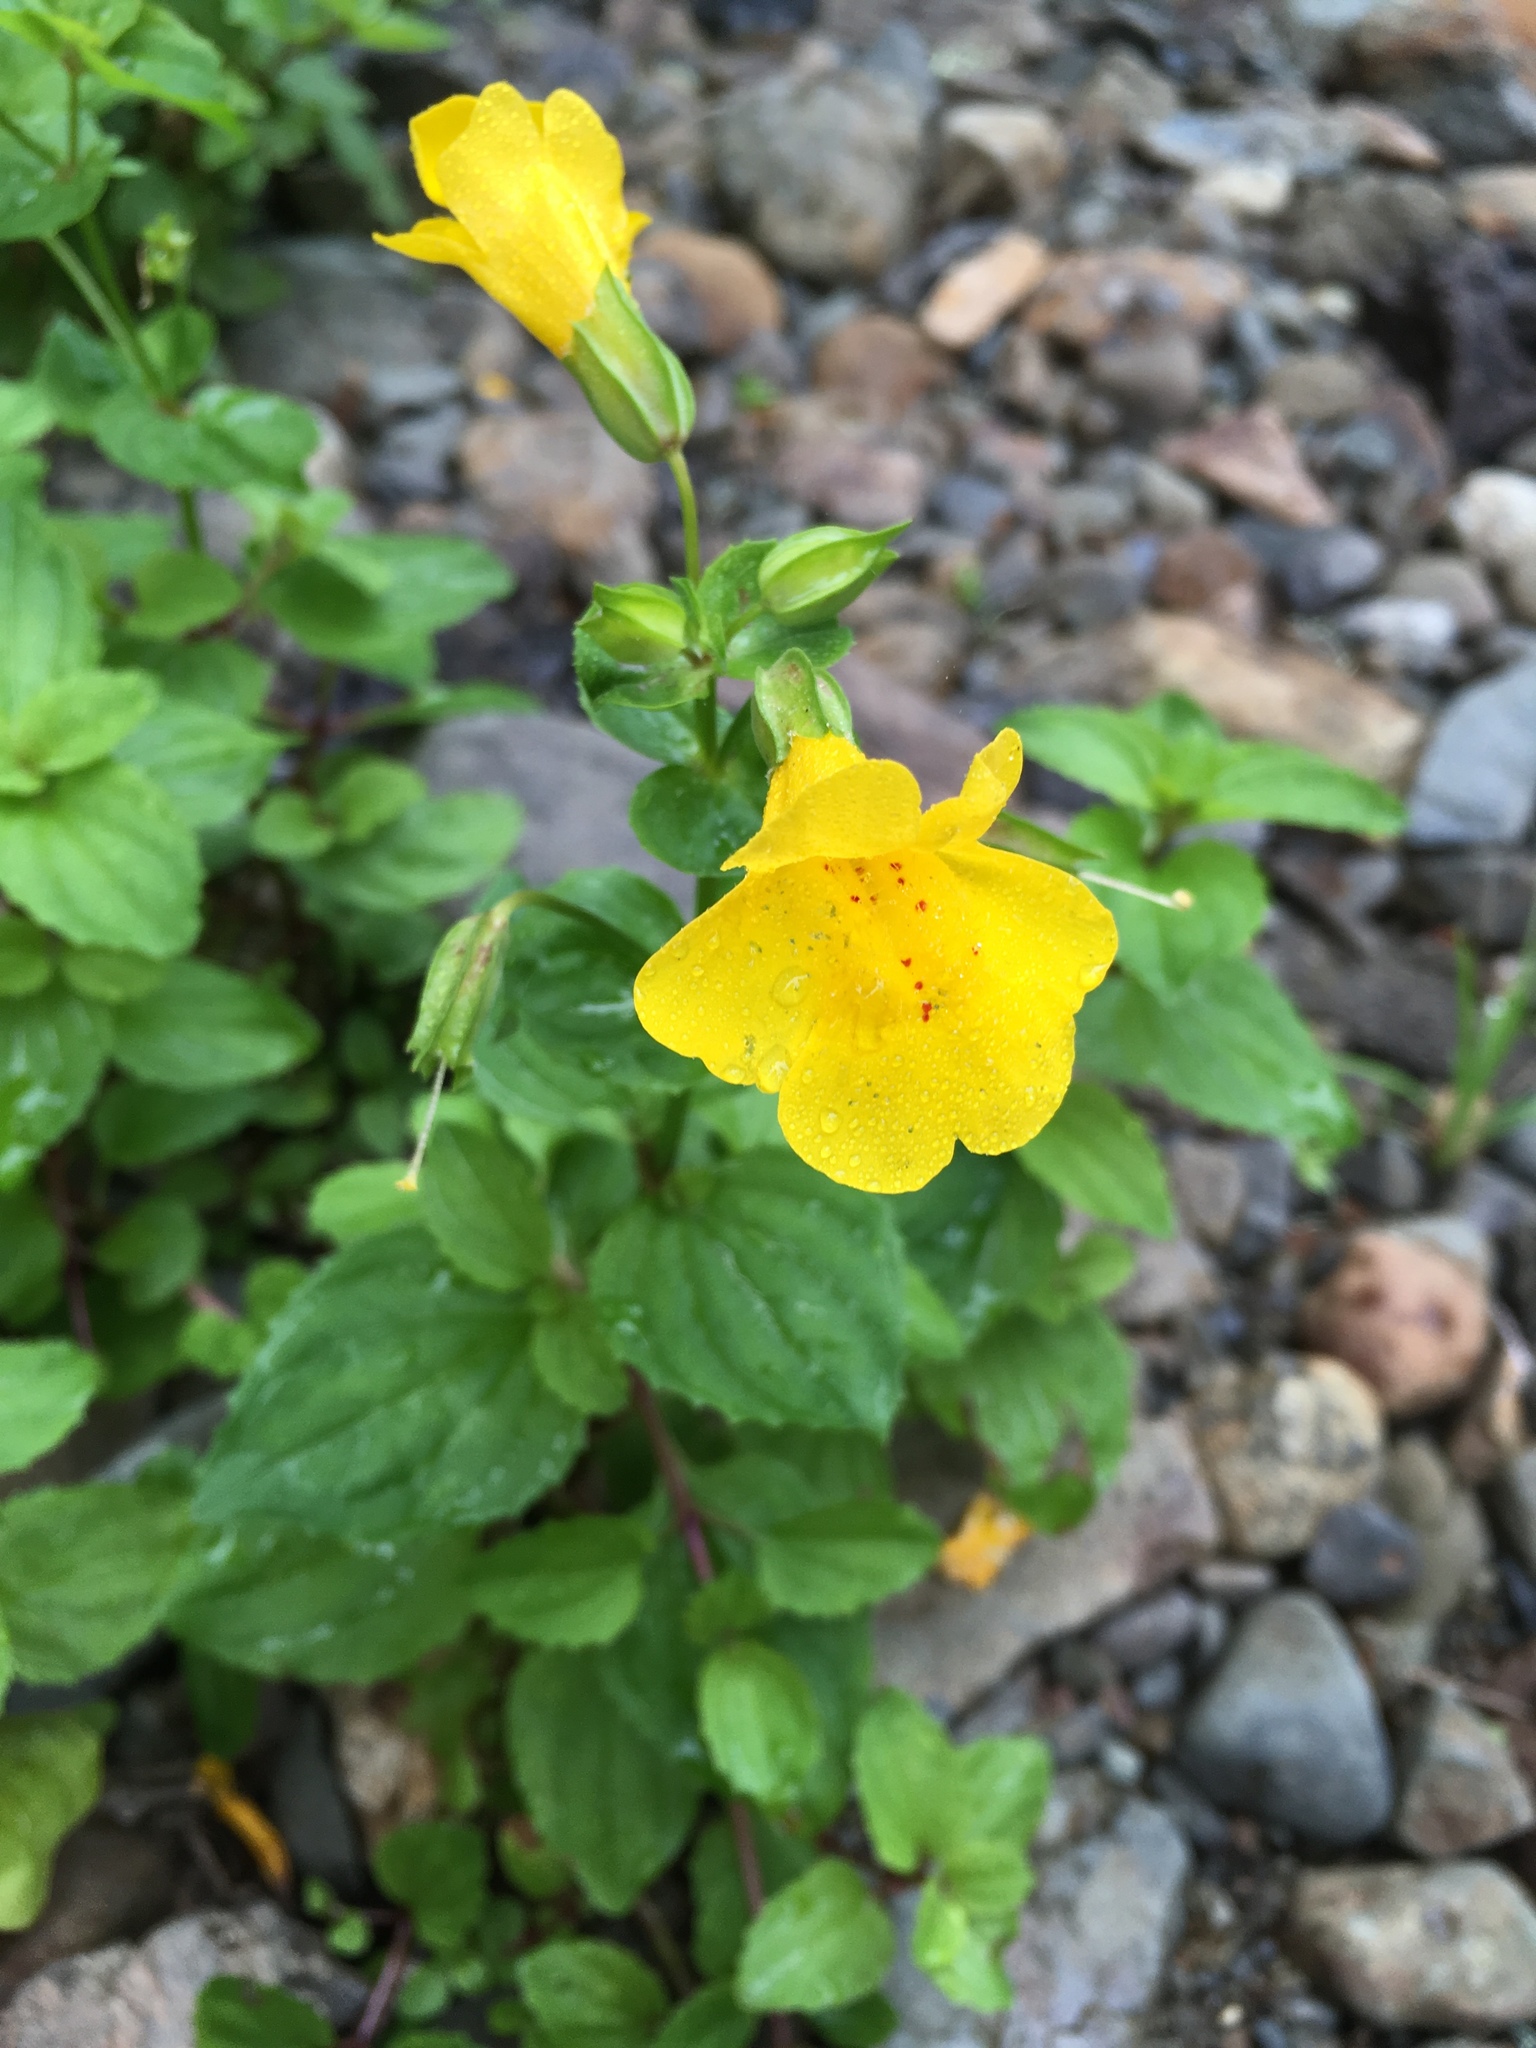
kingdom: Plantae
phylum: Tracheophyta
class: Magnoliopsida
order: Lamiales
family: Phrymaceae
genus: Erythranthe
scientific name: Erythranthe decora
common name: Mannered monkeyflower
